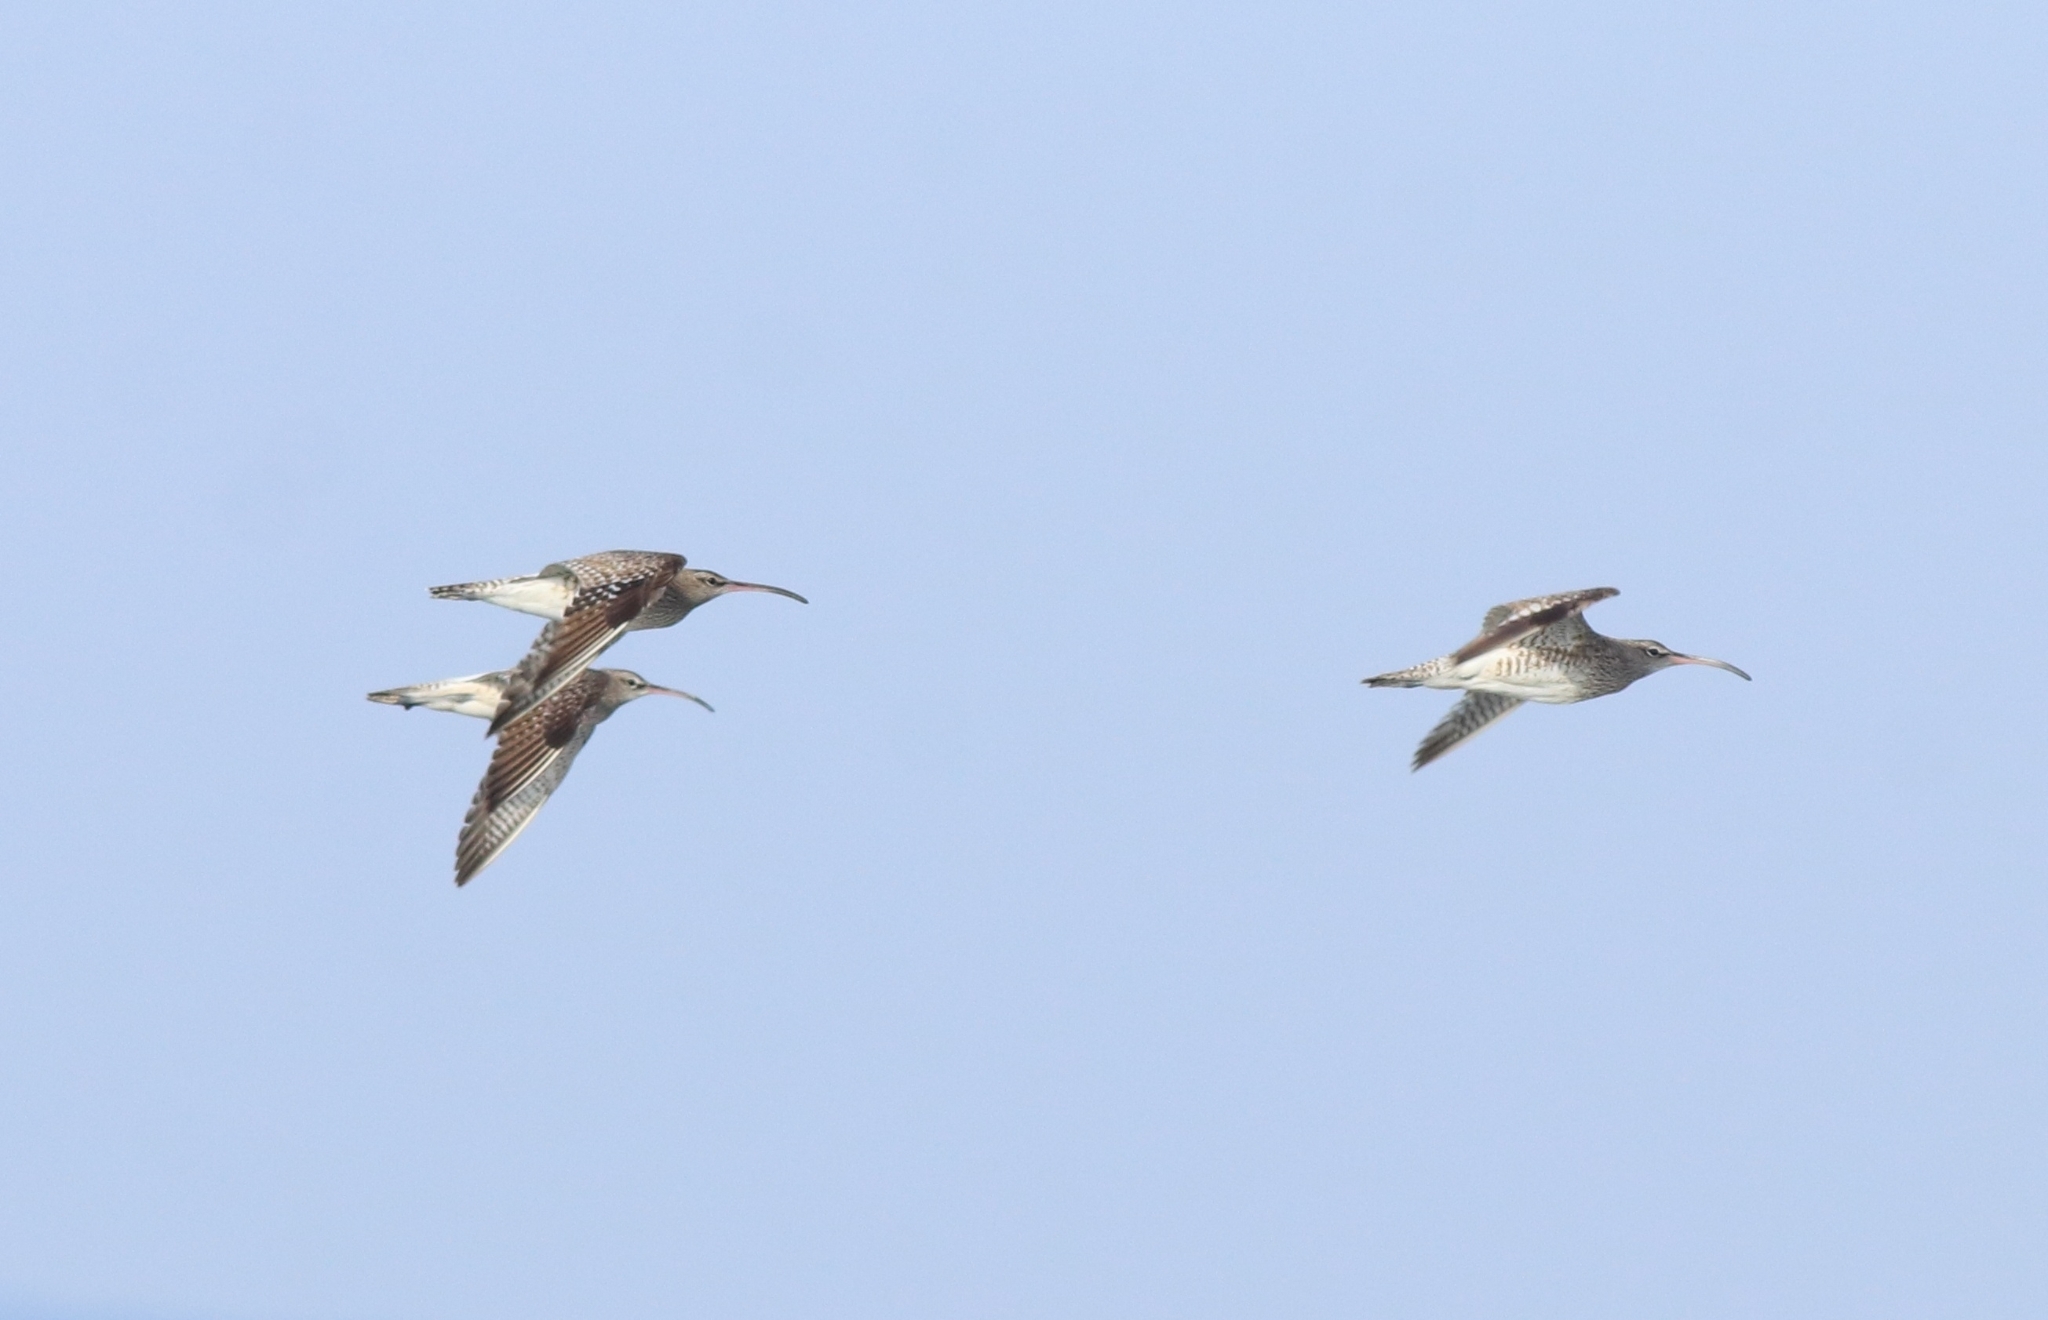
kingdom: Animalia
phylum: Chordata
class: Aves
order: Charadriiformes
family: Scolopacidae
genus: Numenius
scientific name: Numenius phaeopus
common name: Whimbrel
